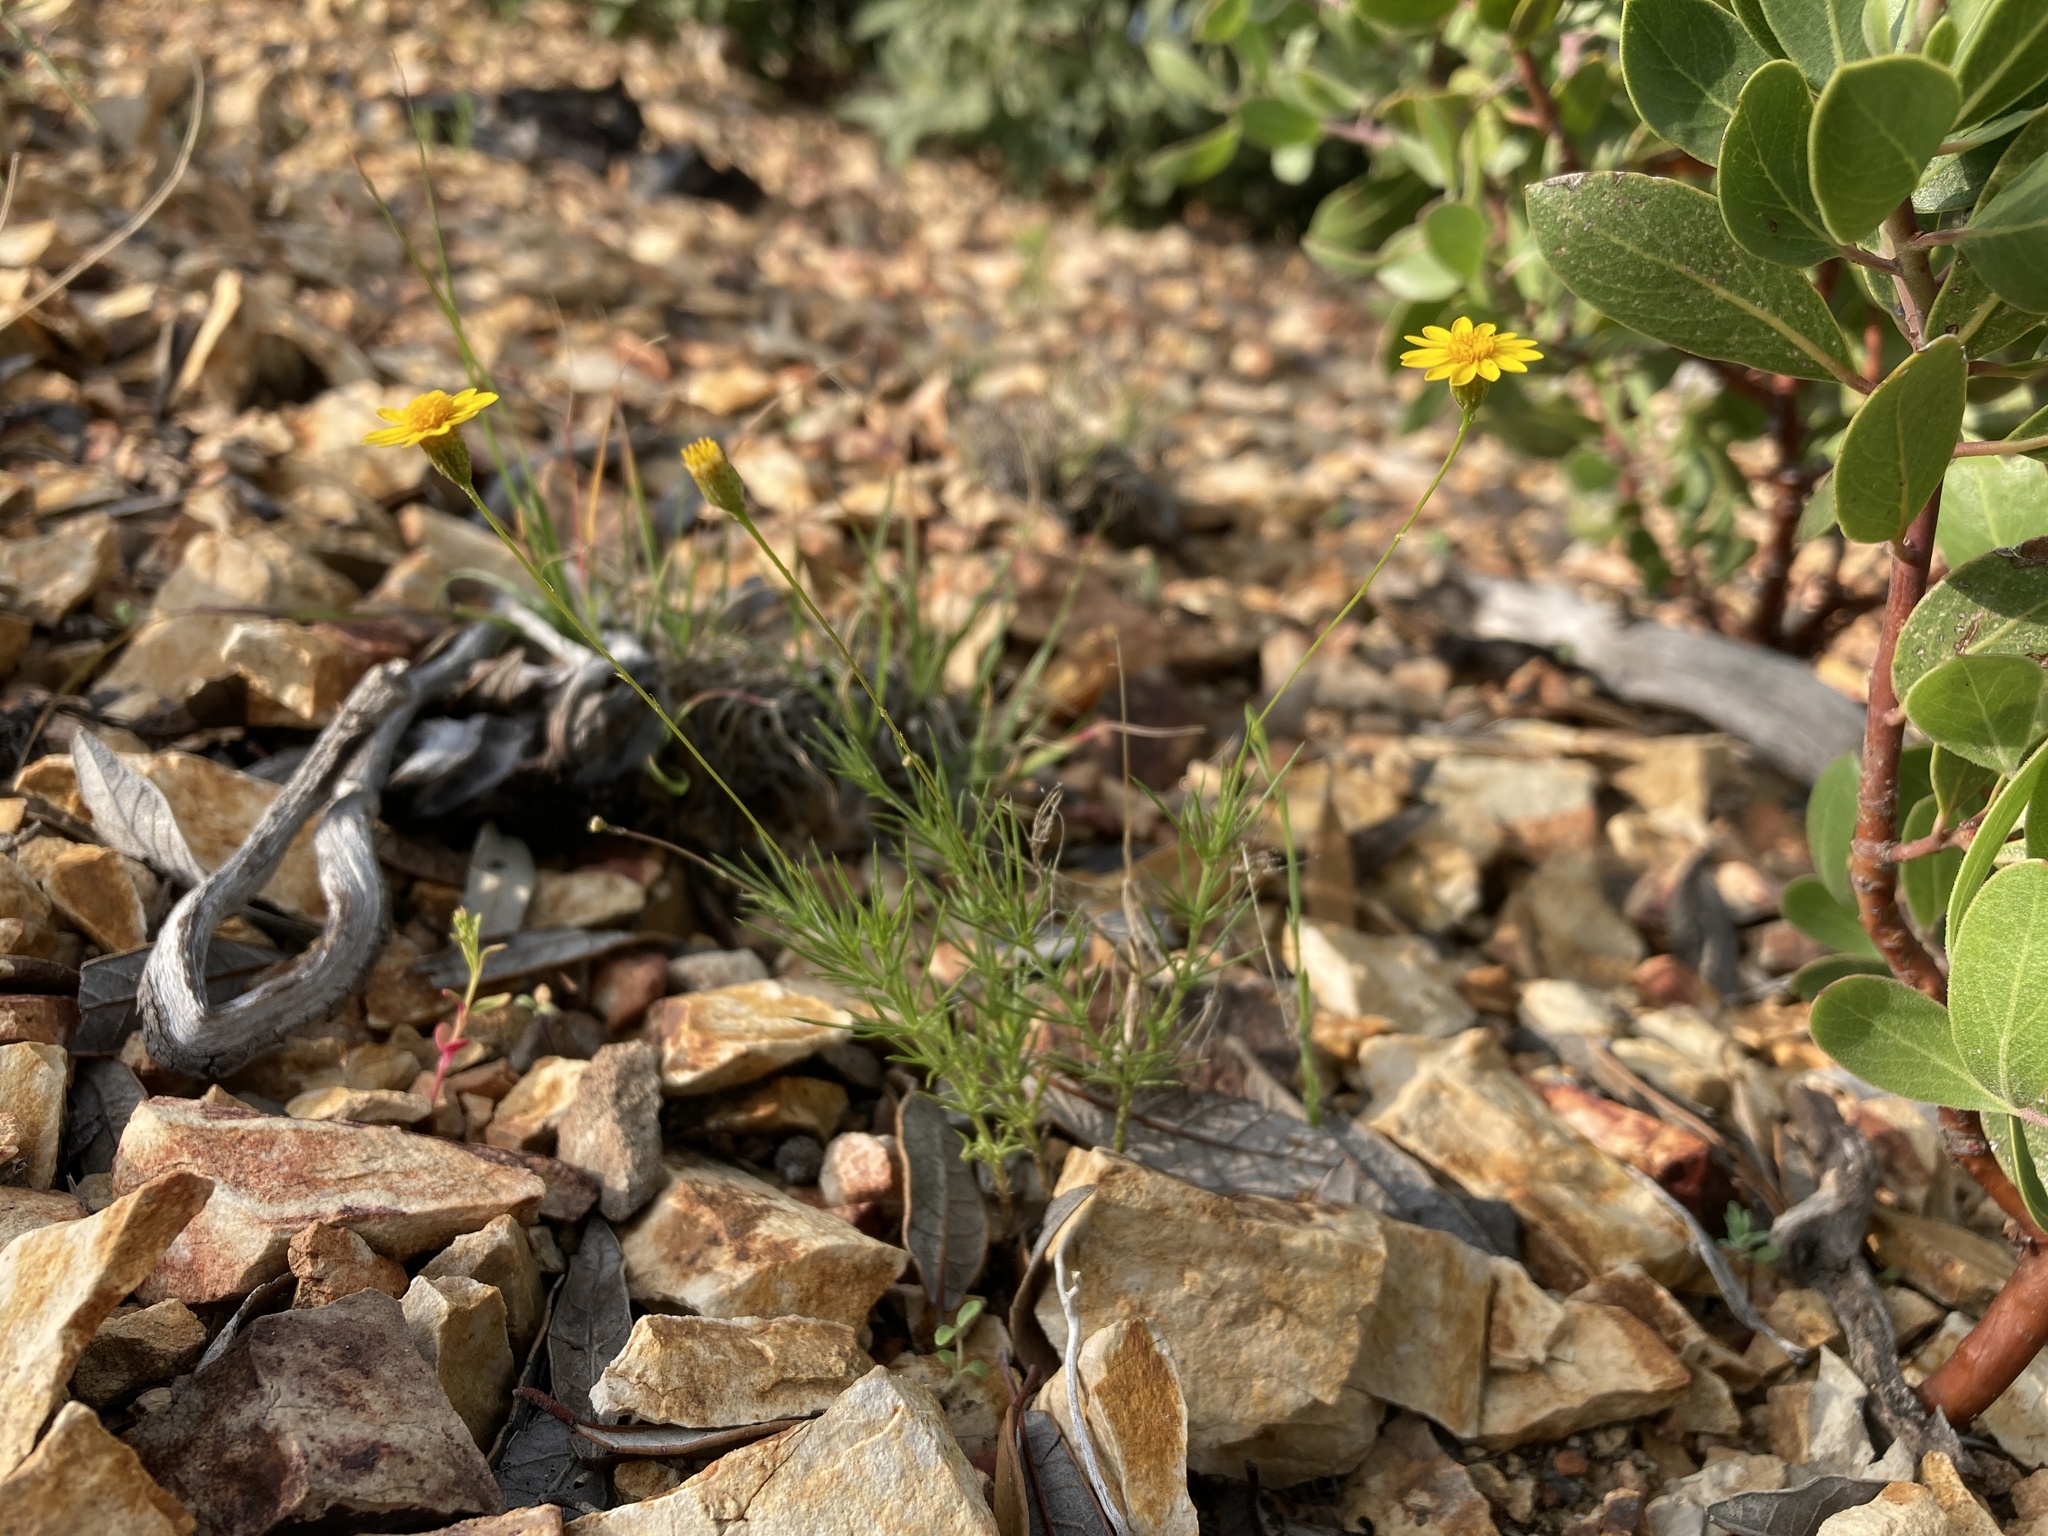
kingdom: Plantae
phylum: Tracheophyta
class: Magnoliopsida
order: Asterales
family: Asteraceae
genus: Thymophylla
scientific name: Thymophylla pentachaeta
